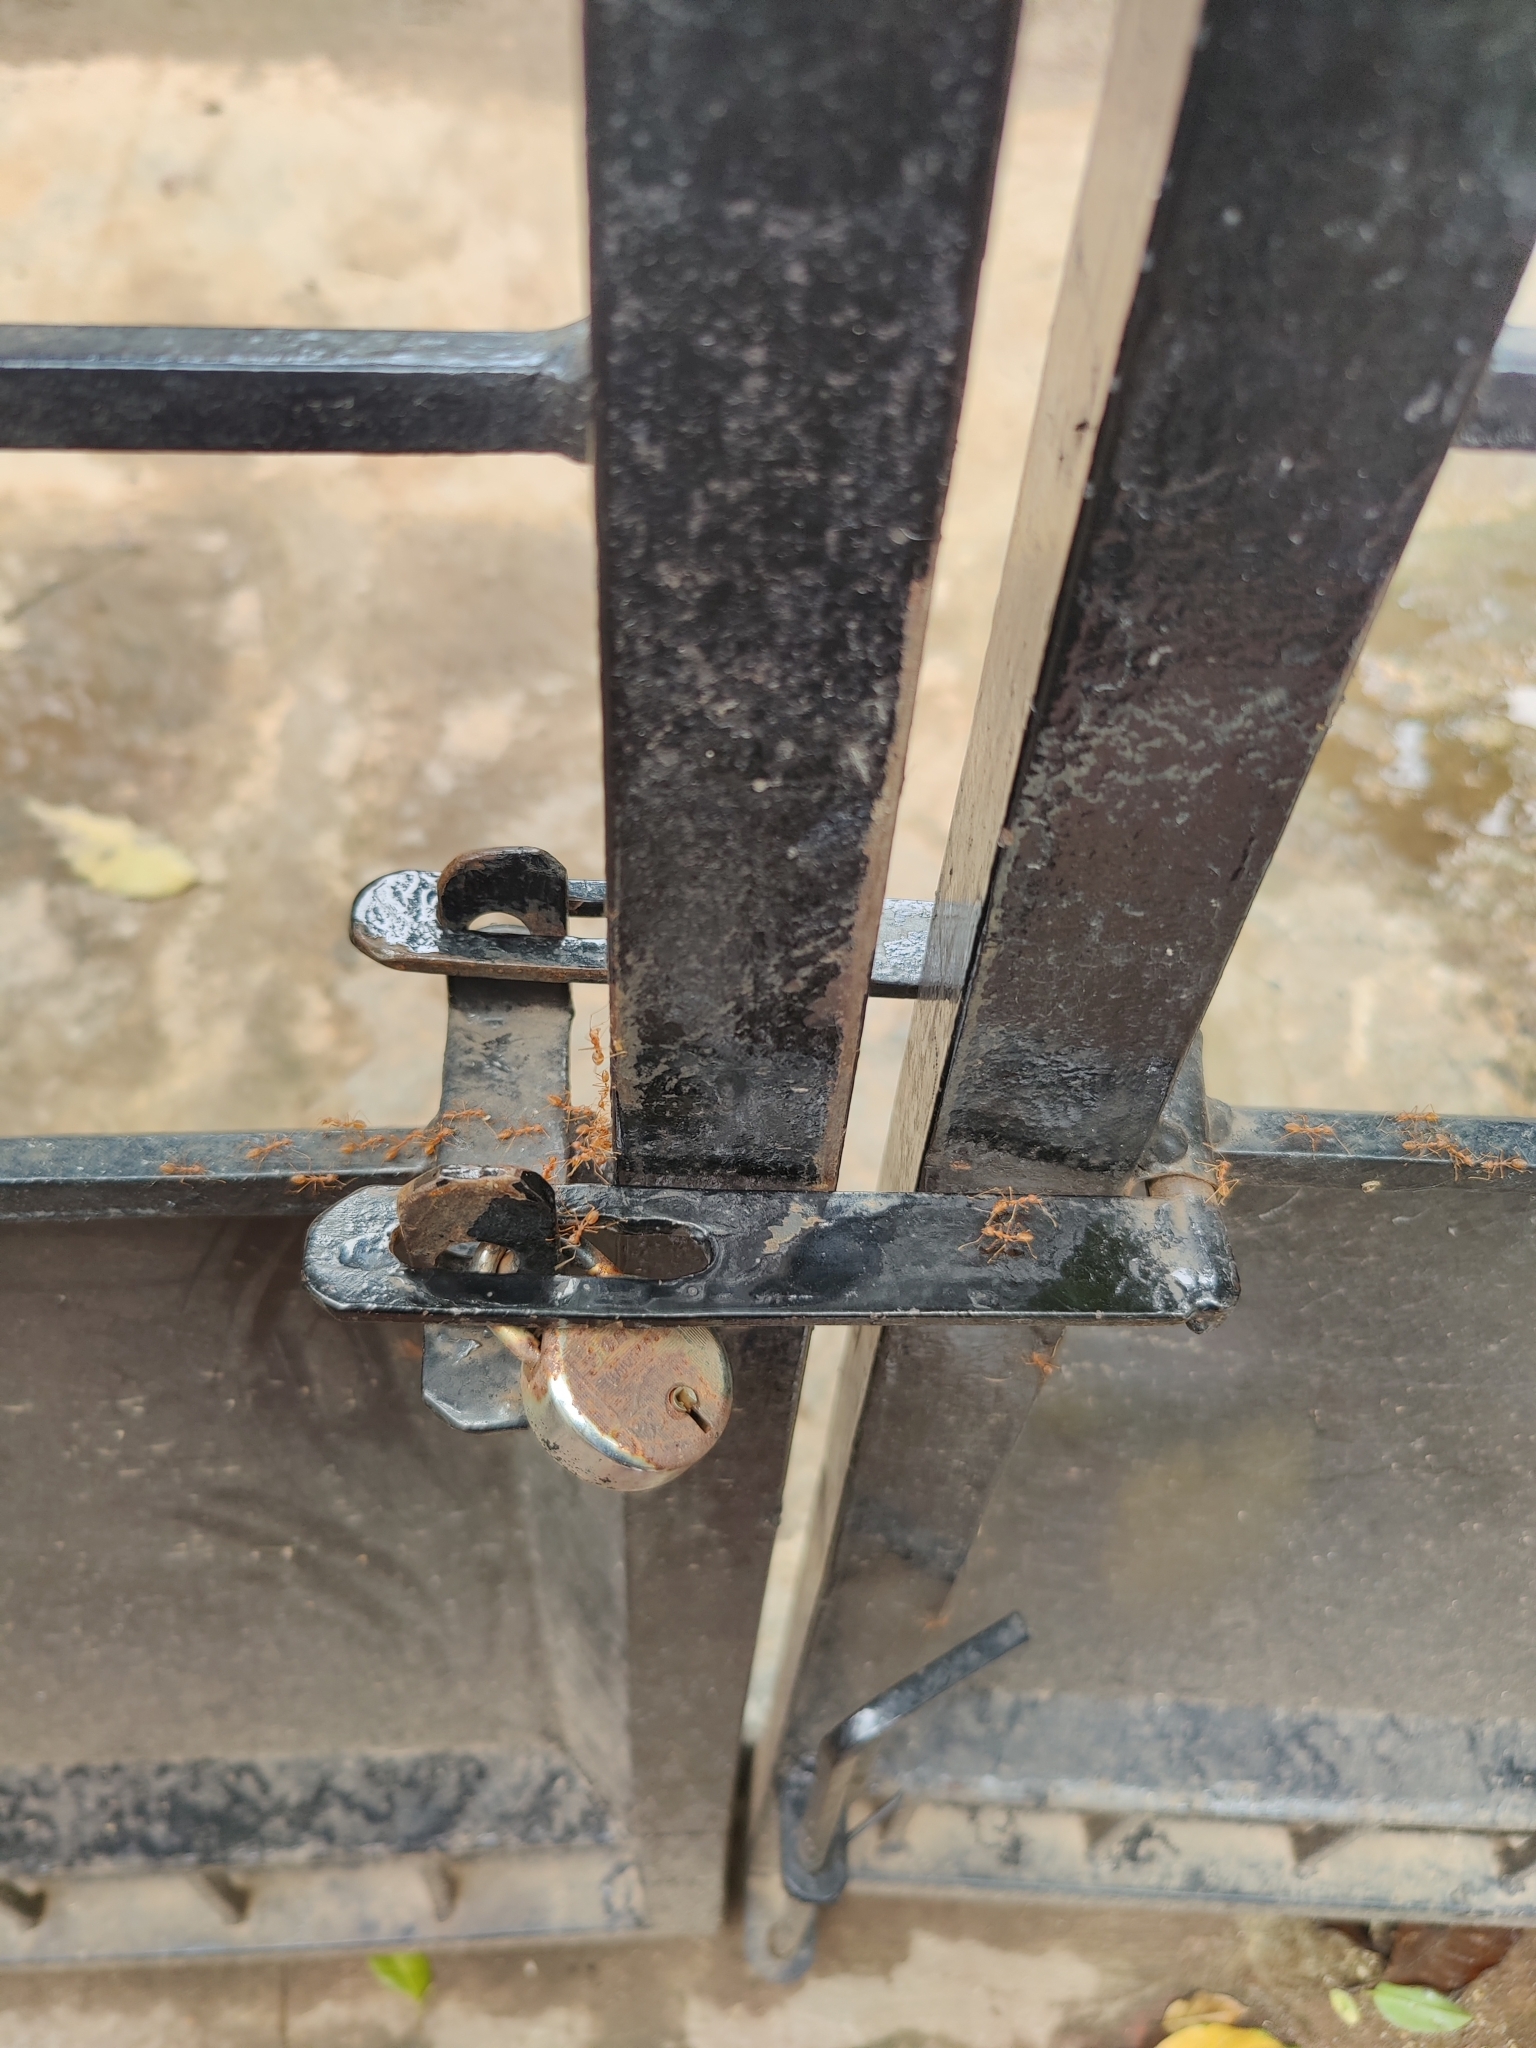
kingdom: Animalia
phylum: Arthropoda
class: Insecta
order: Hymenoptera
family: Formicidae
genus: Oecophylla
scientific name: Oecophylla smaragdina
